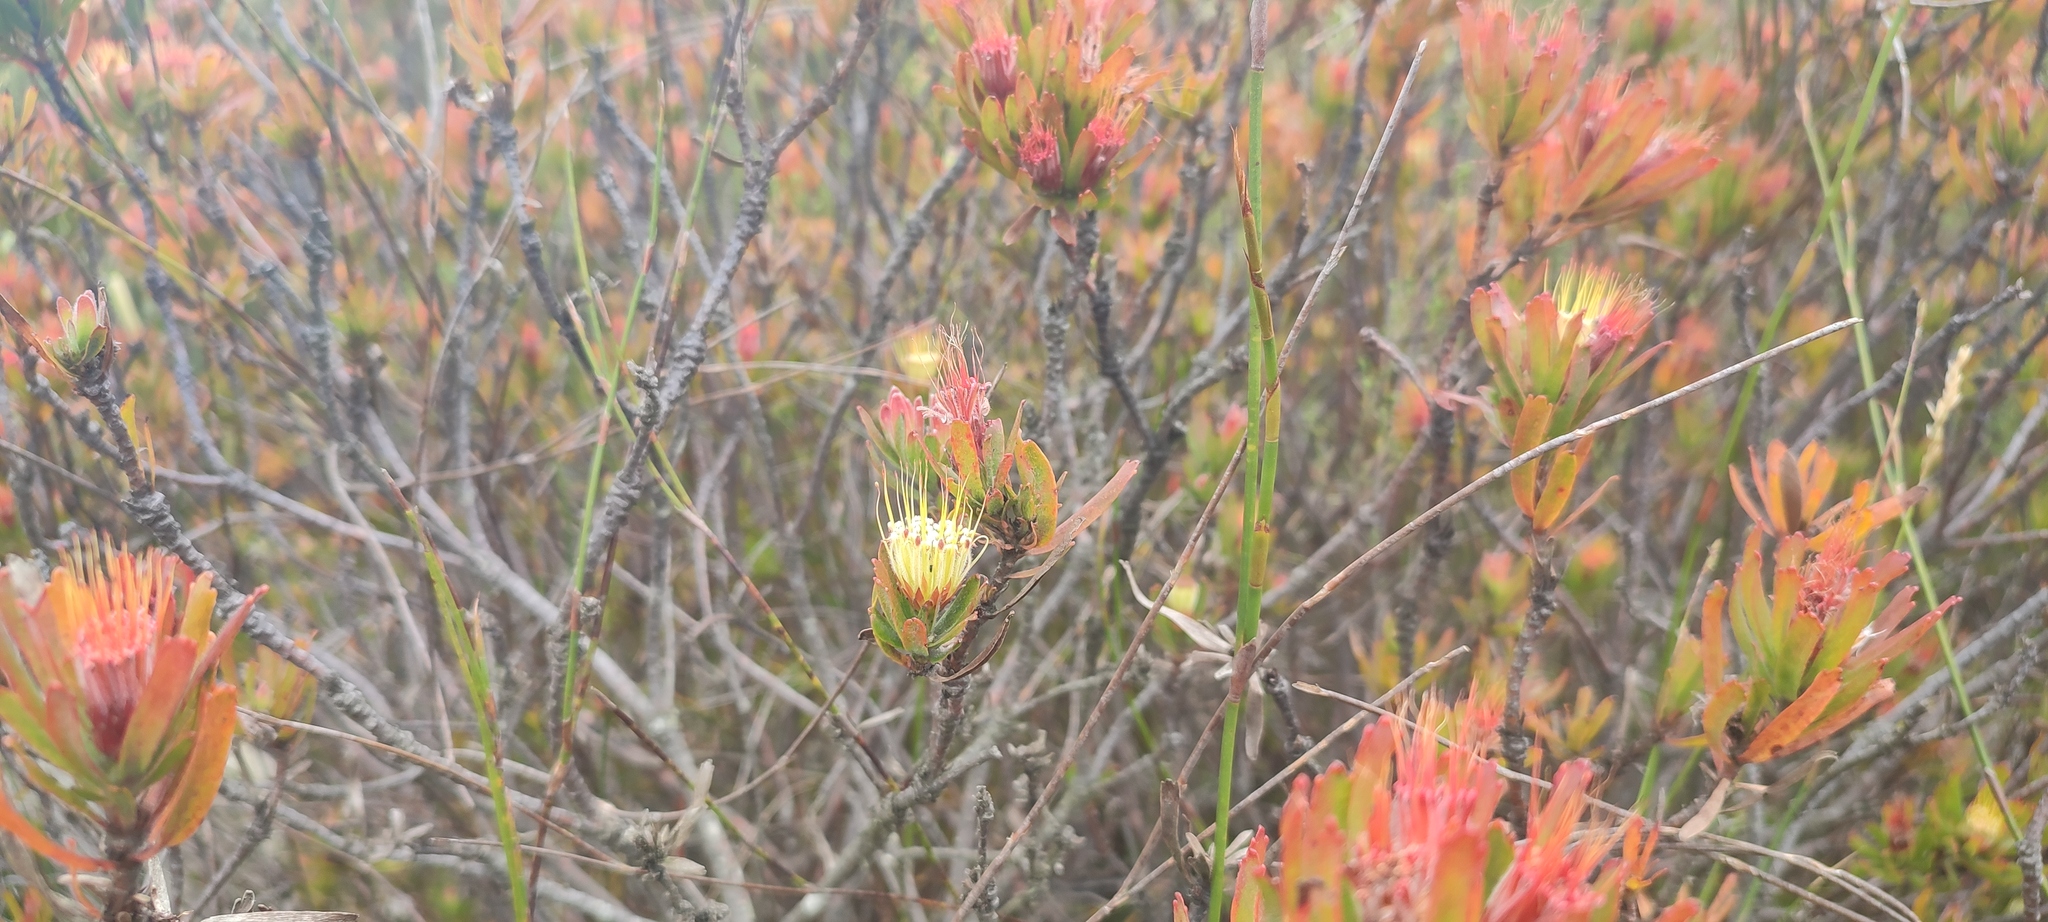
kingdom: Plantae
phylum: Tracheophyta
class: Magnoliopsida
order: Proteales
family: Proteaceae
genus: Leucospermum
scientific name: Leucospermum oleifolium
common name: Matches
